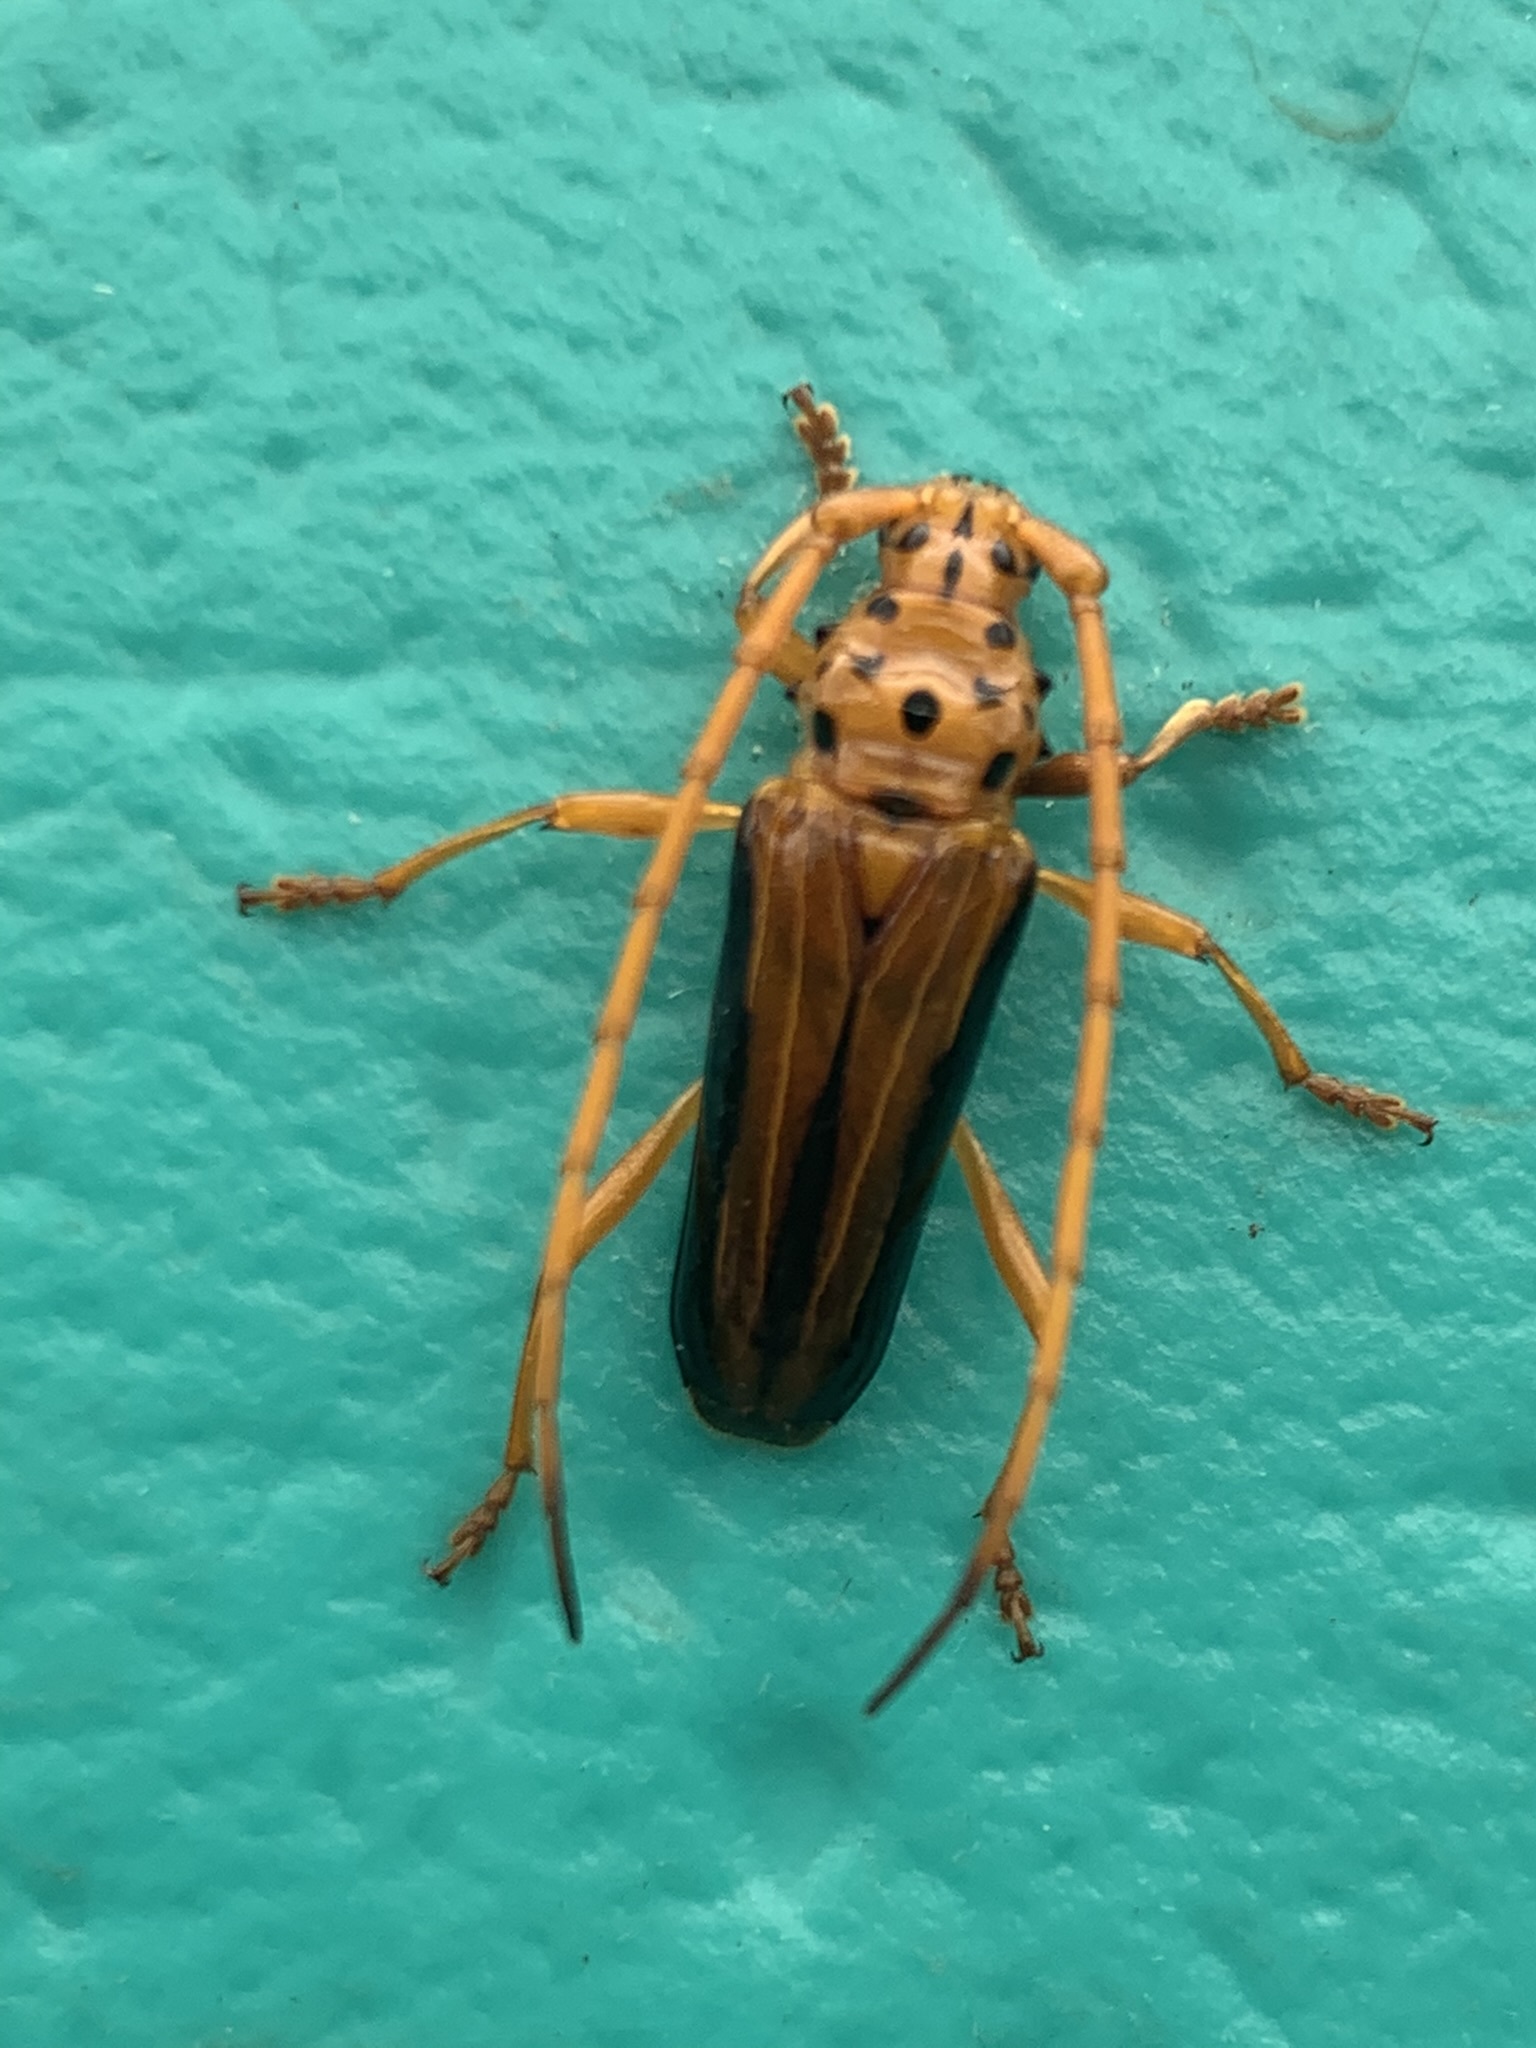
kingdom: Animalia
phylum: Arthropoda
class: Insecta
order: Coleoptera
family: Cerambycidae
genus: Chydarteres
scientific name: Chydarteres dimidiatus
